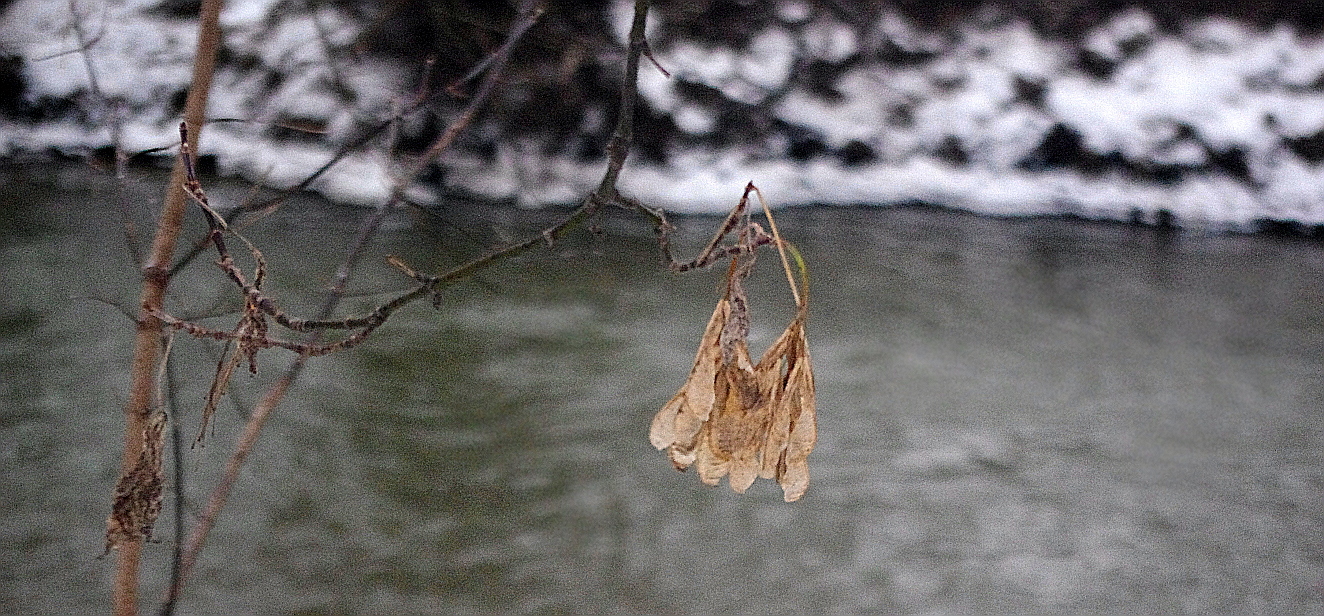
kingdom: Plantae
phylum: Tracheophyta
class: Magnoliopsida
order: Sapindales
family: Sapindaceae
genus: Acer
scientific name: Acer negundo
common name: Ashleaf maple
